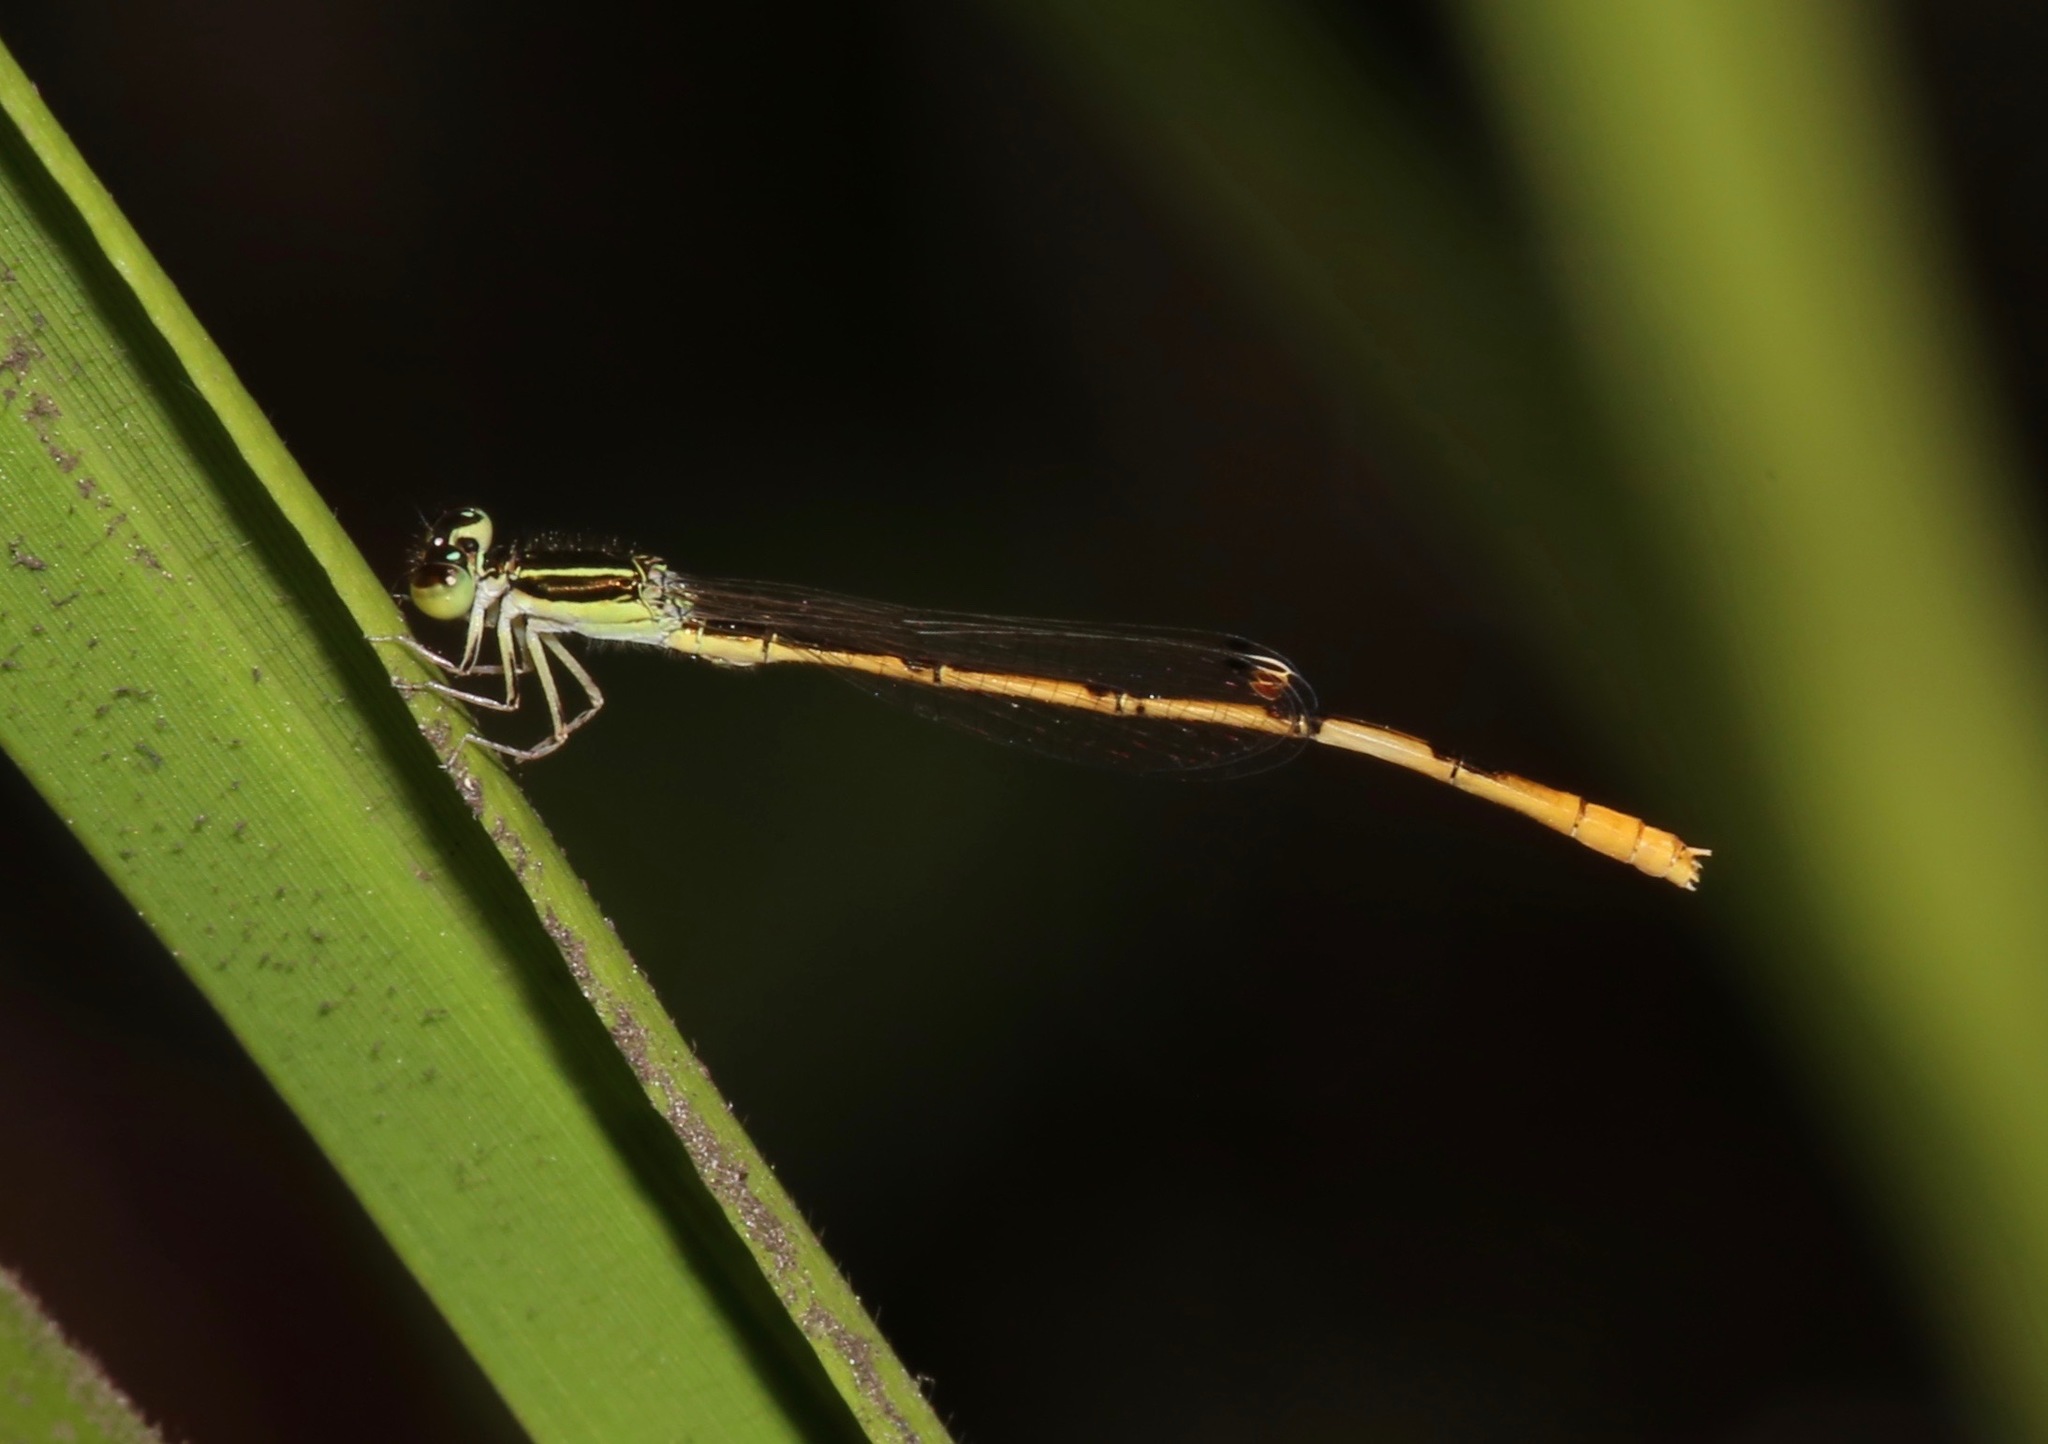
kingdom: Animalia
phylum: Arthropoda
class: Insecta
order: Odonata
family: Coenagrionidae
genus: Ischnura
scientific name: Ischnura hastata
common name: Citrine forktail
